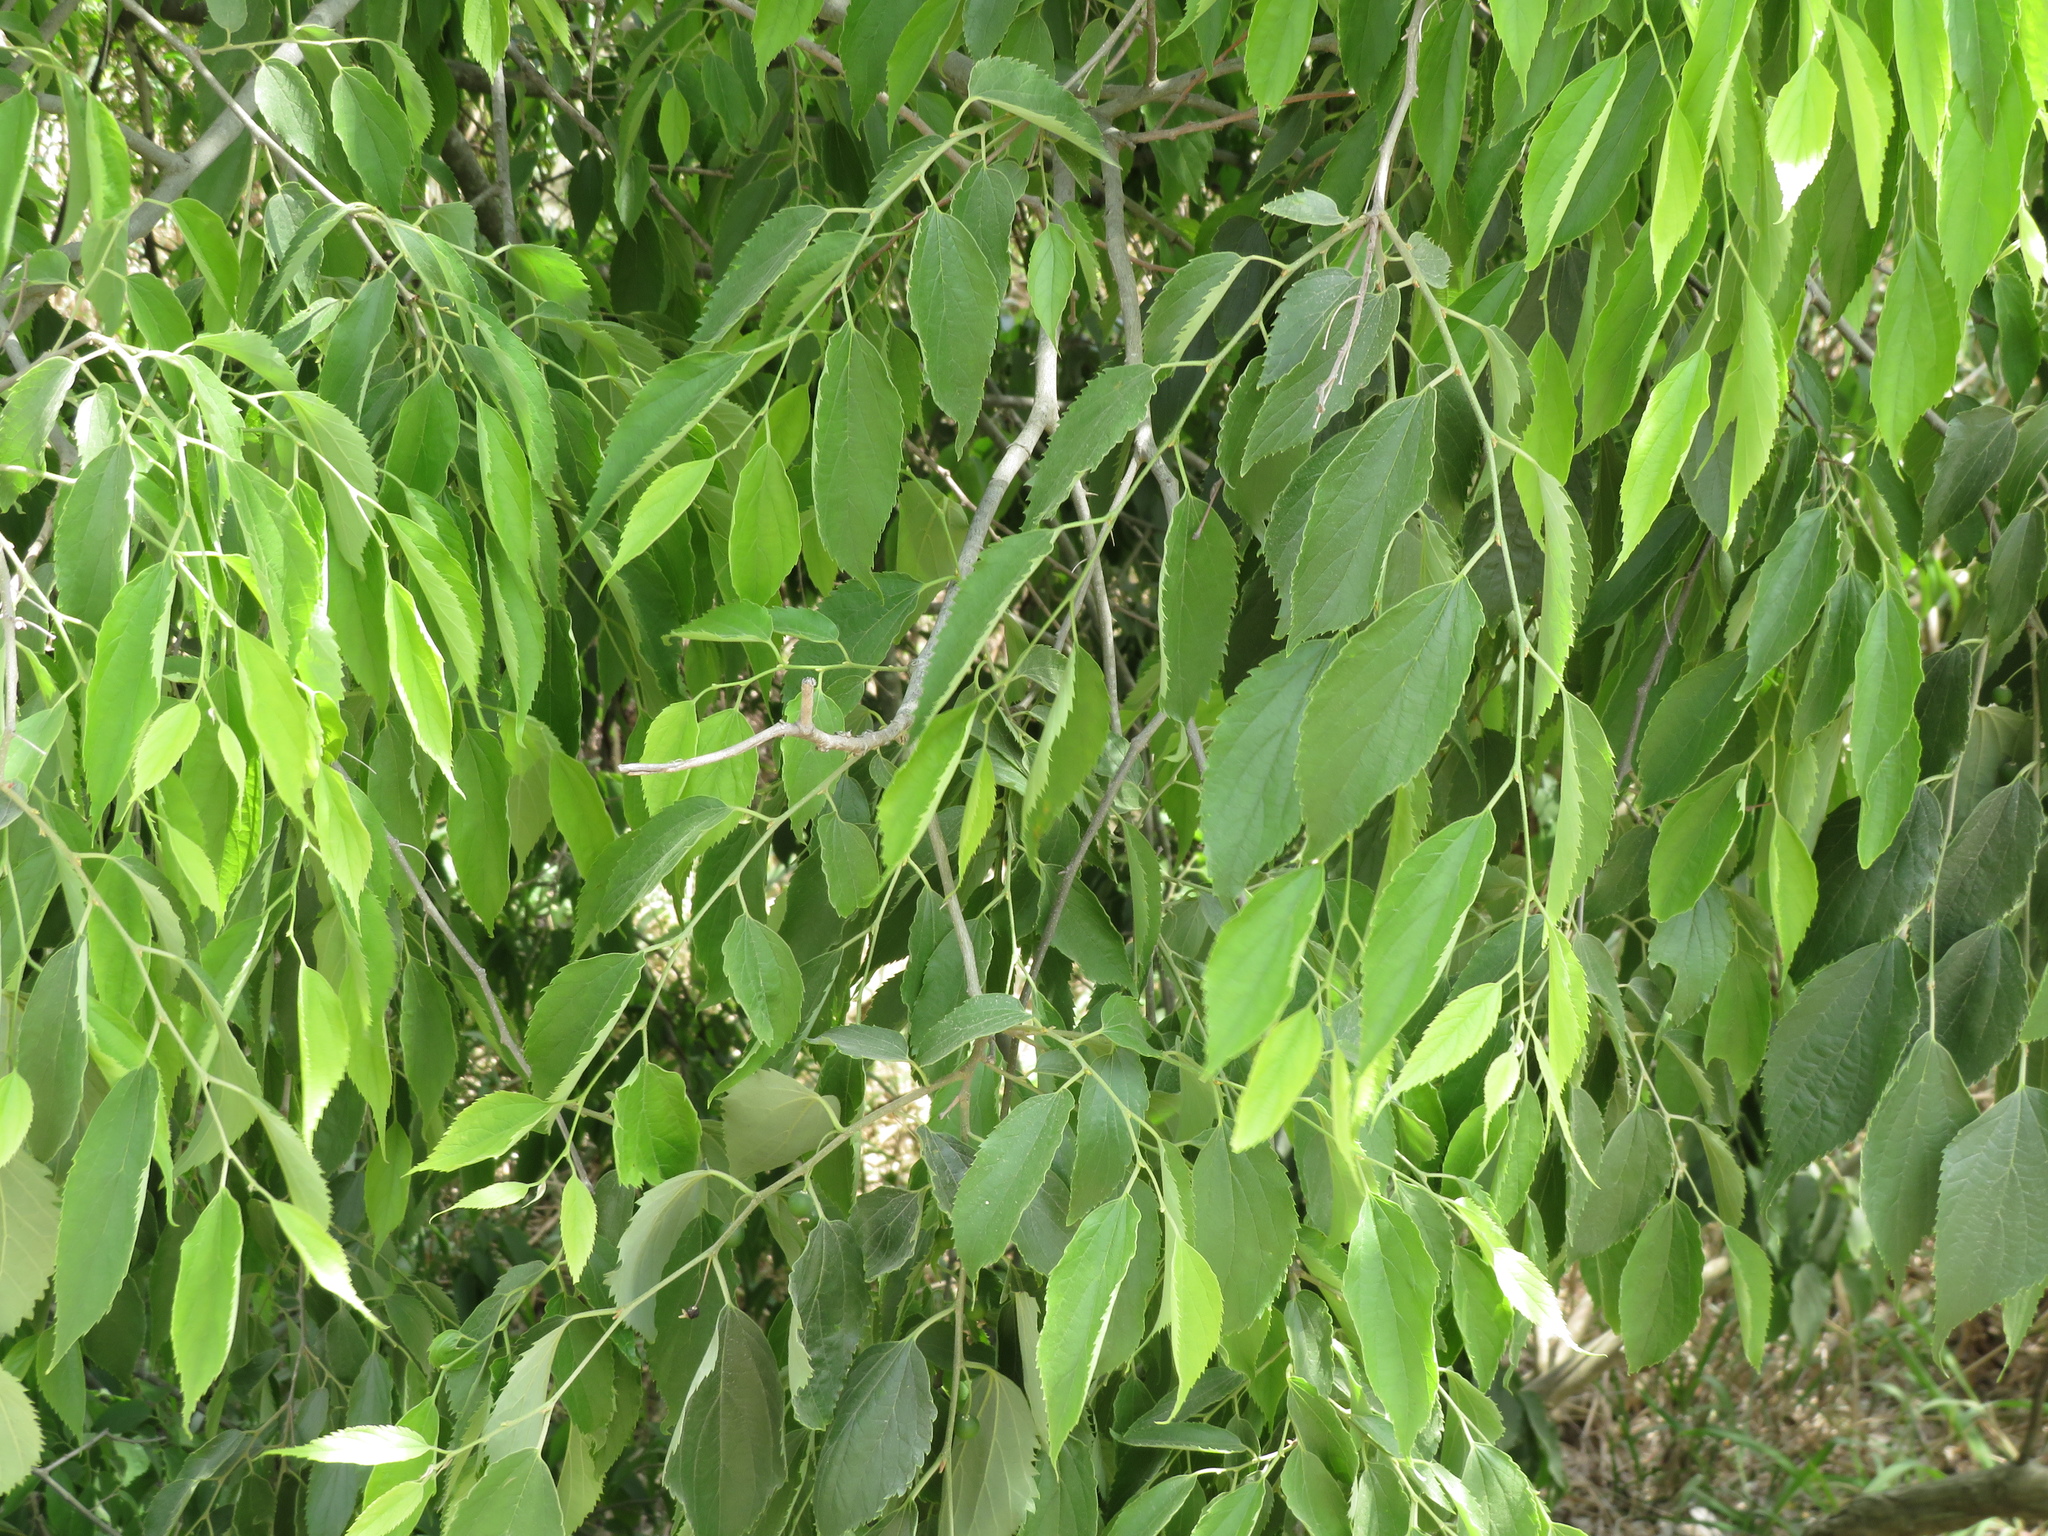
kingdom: Plantae
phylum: Tracheophyta
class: Magnoliopsida
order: Rosales
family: Cannabaceae
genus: Celtis
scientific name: Celtis australis
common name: European hackberry
